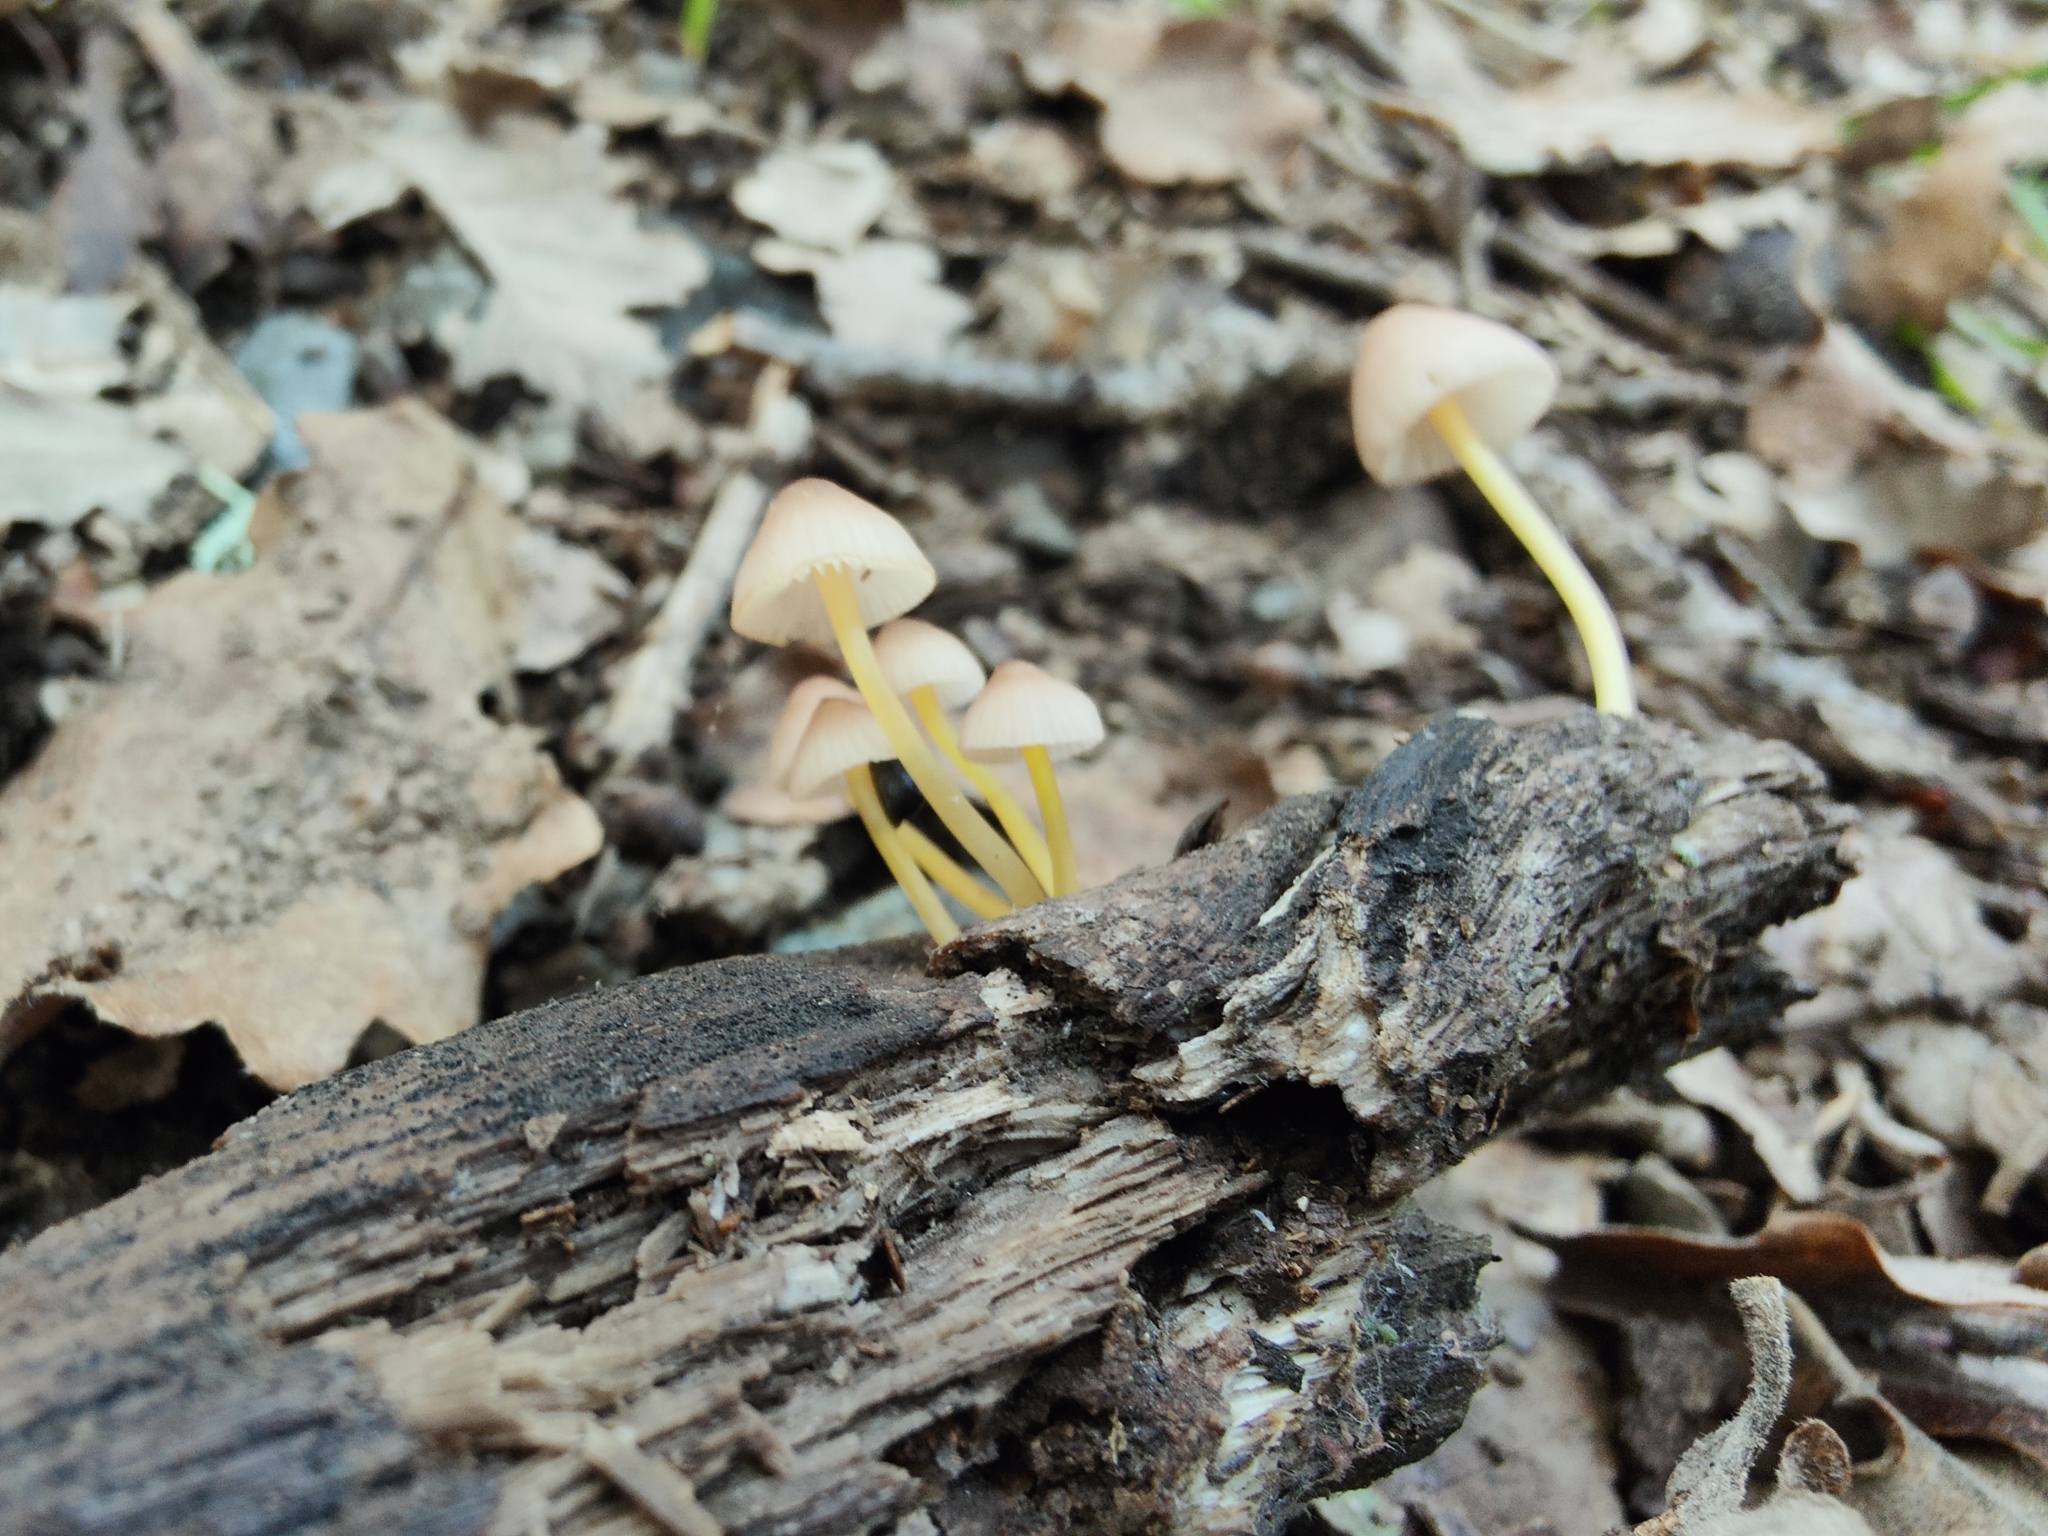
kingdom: Fungi
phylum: Basidiomycota
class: Agaricomycetes
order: Agaricales
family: Mycenaceae
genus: Mycena
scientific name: Mycena renati
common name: Beautiful bonnet
